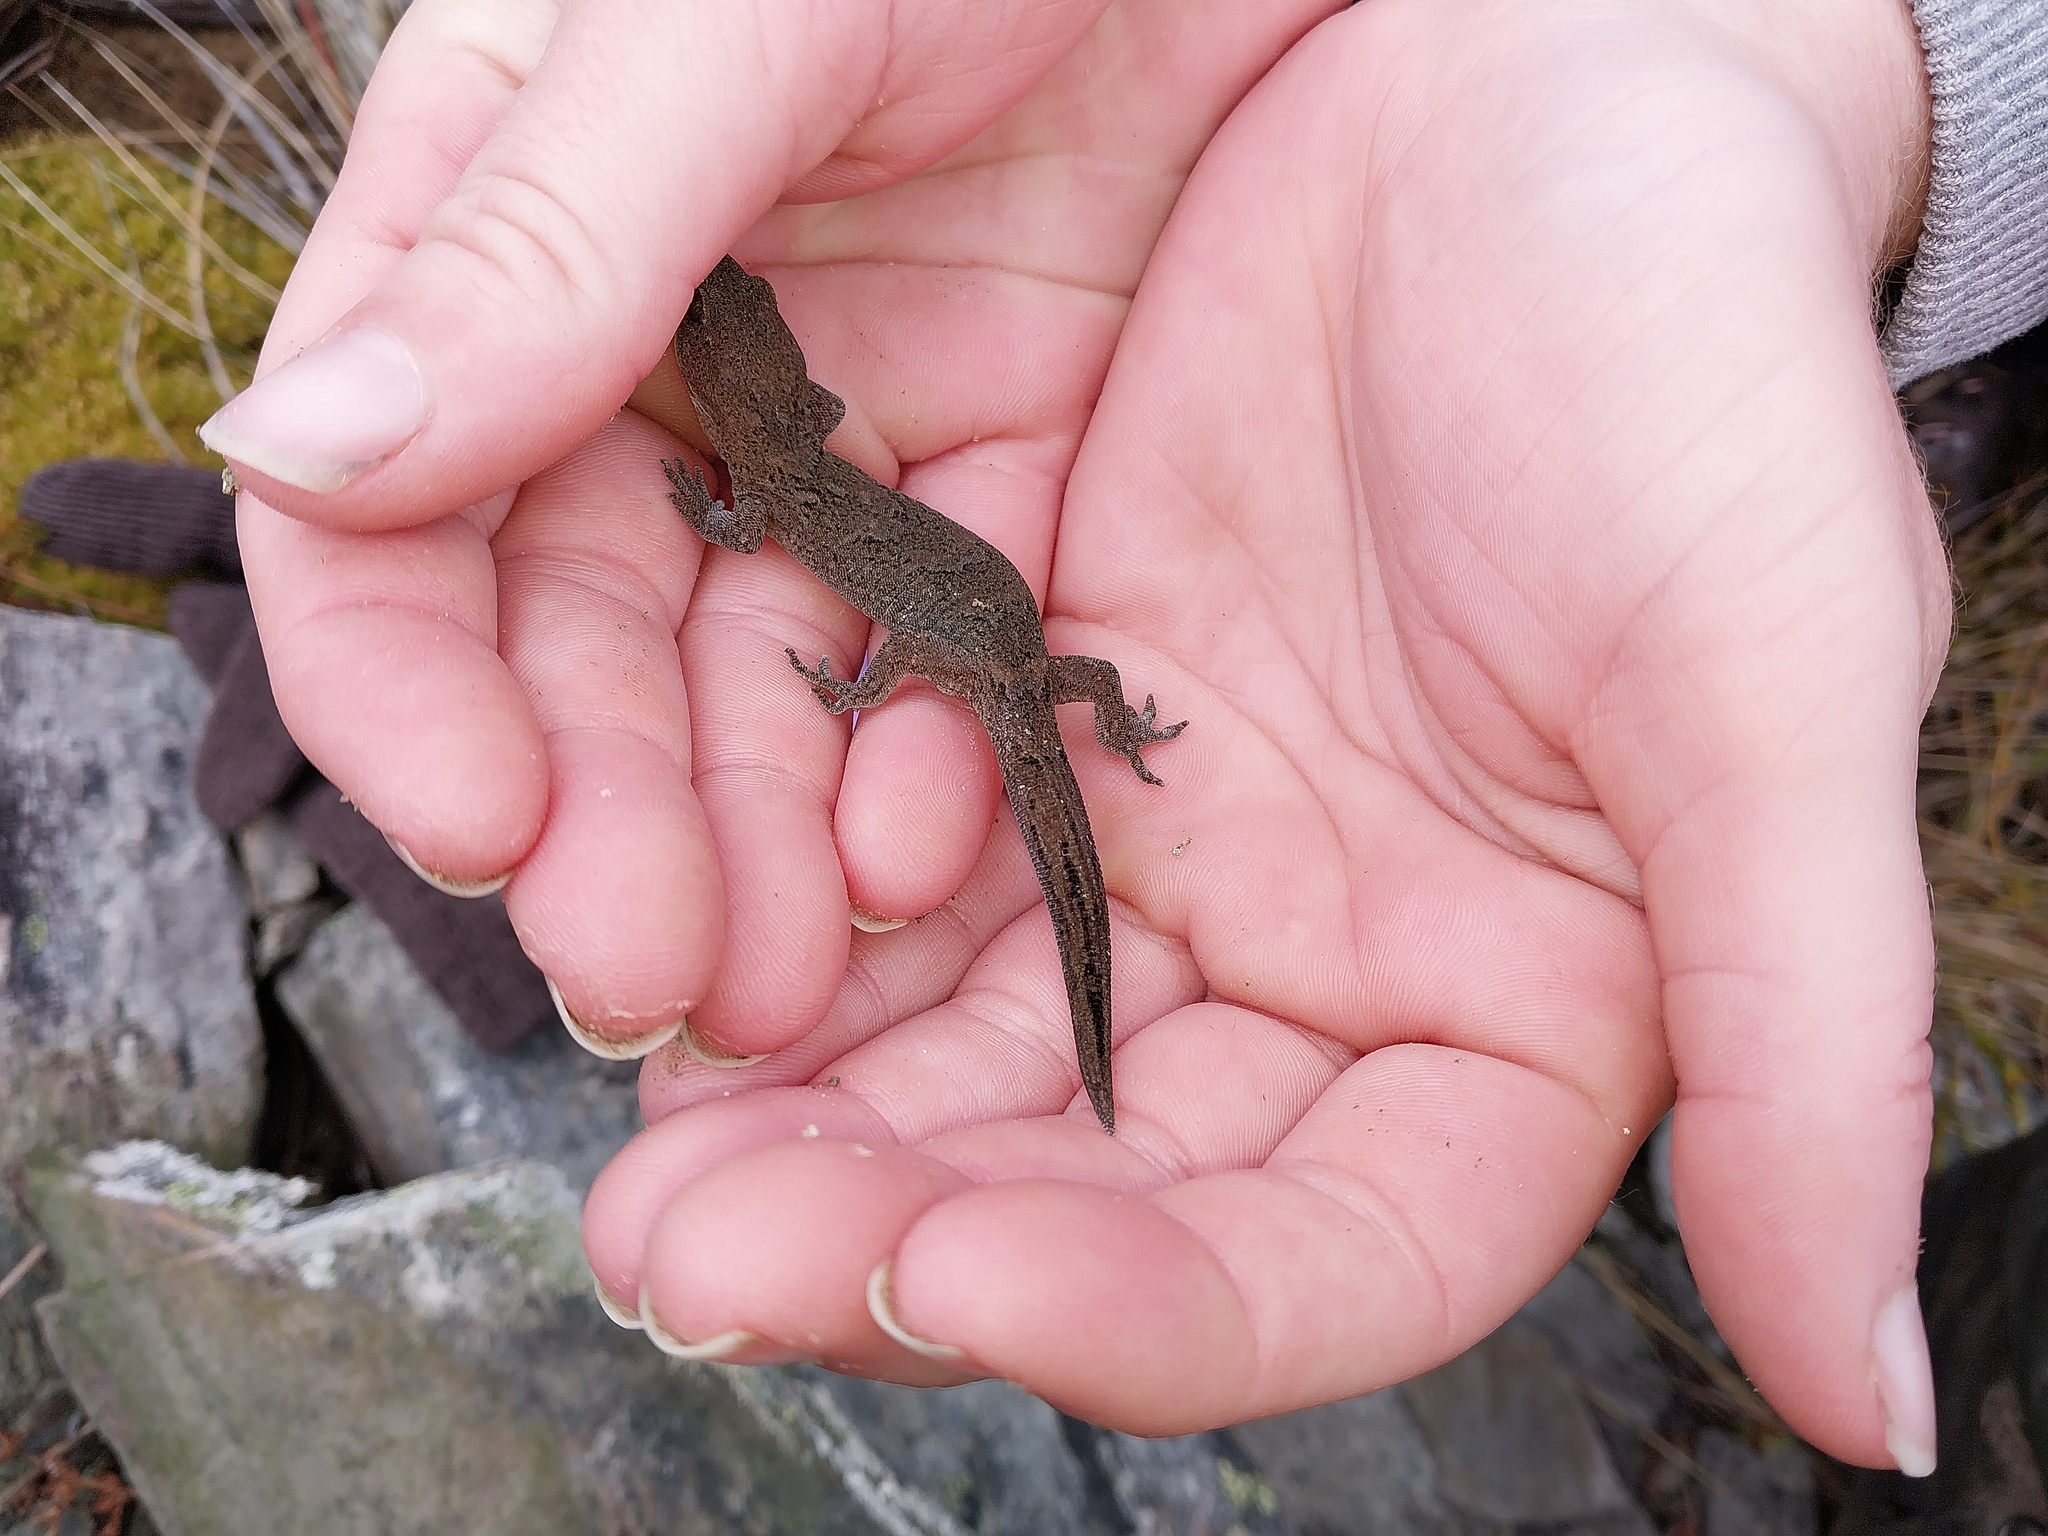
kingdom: Animalia
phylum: Chordata
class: Squamata
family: Diplodactylidae
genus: Woodworthia
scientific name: Woodworthia
